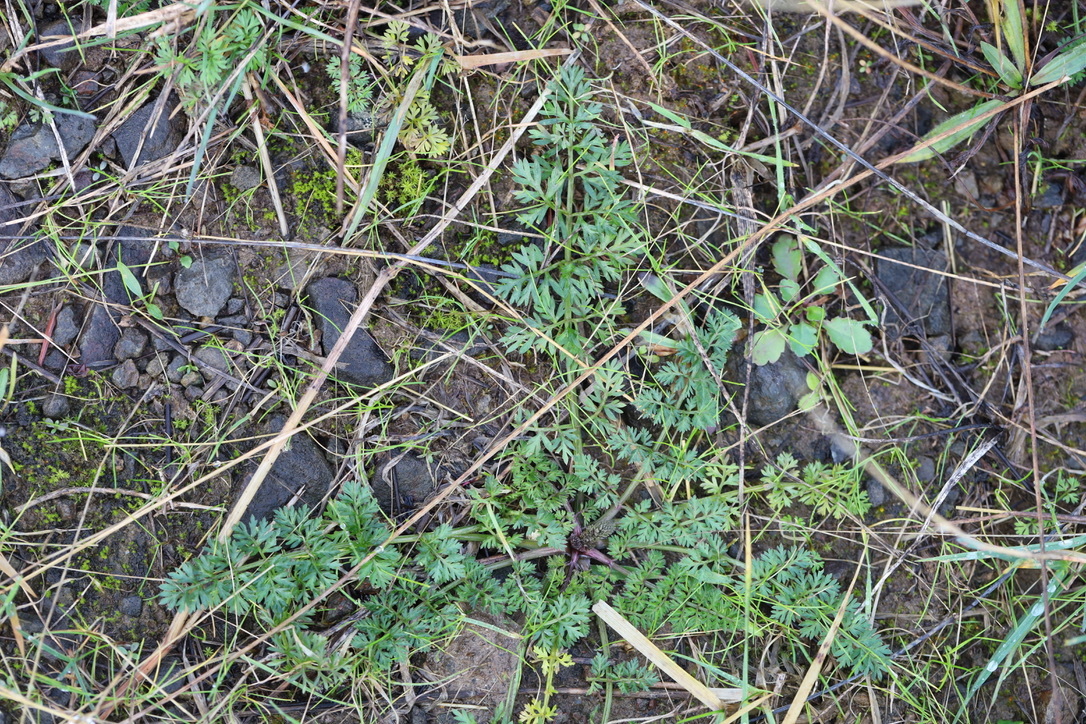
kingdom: Plantae
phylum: Tracheophyta
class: Magnoliopsida
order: Apiales
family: Apiaceae
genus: Daucus
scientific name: Daucus carota
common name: Wild carrot
